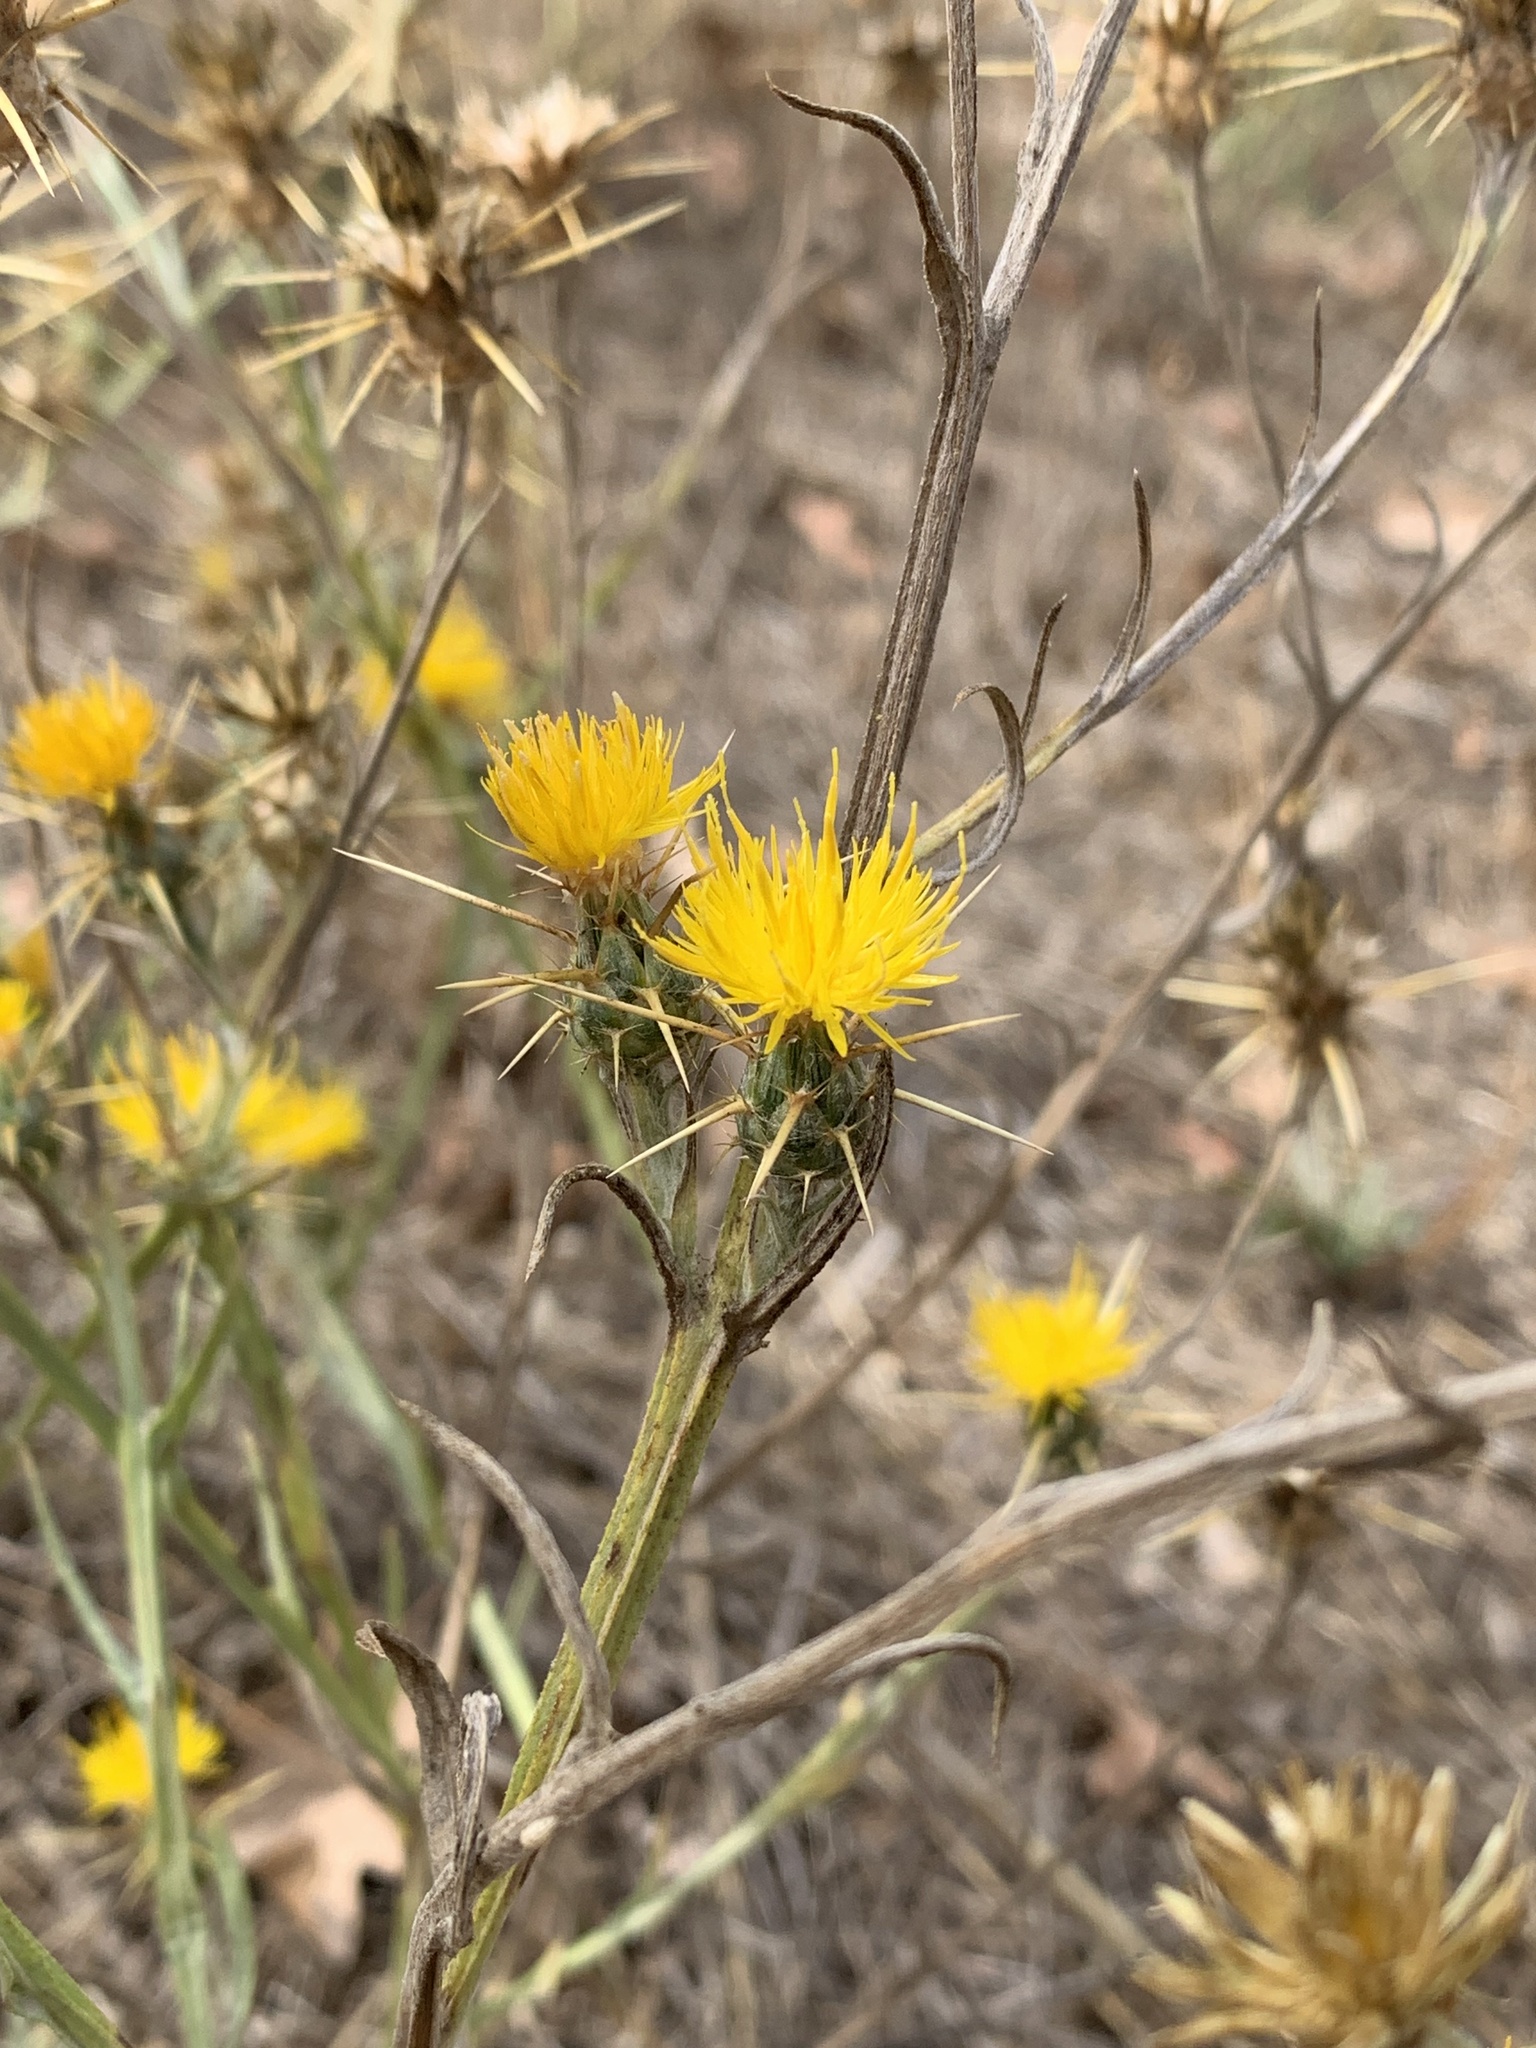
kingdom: Plantae
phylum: Tracheophyta
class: Magnoliopsida
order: Asterales
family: Asteraceae
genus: Centaurea
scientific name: Centaurea solstitialis
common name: Yellow star-thistle
